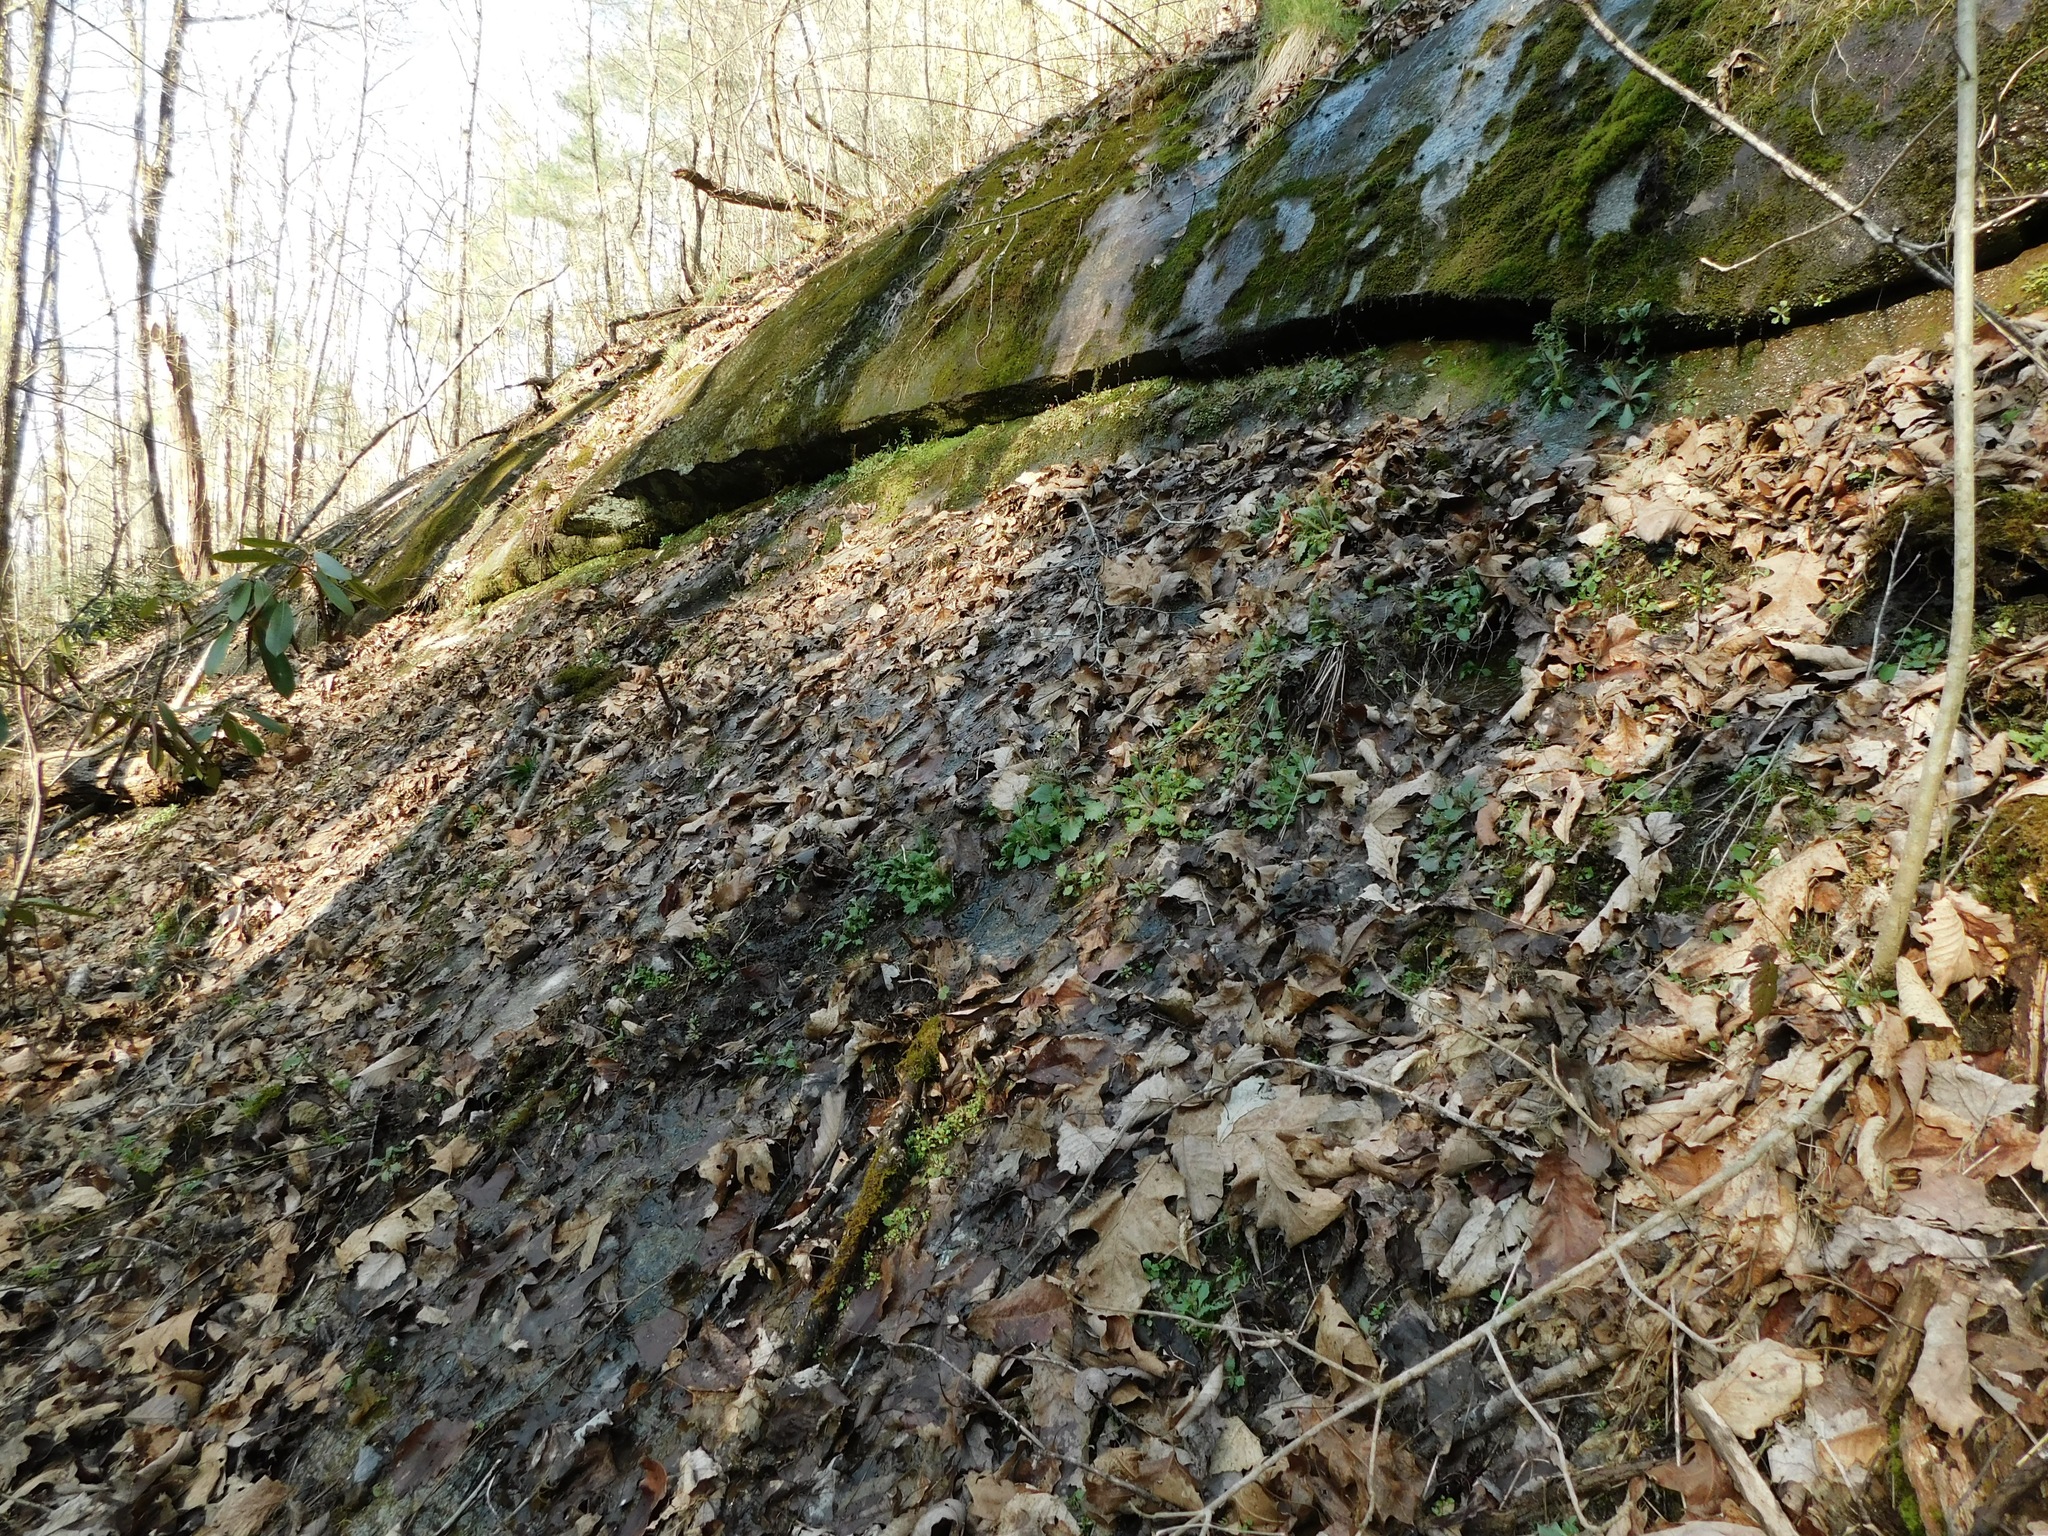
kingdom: Plantae
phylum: Tracheophyta
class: Magnoliopsida
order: Saxifragales
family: Saxifragaceae
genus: Micranthes
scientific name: Micranthes careyana
